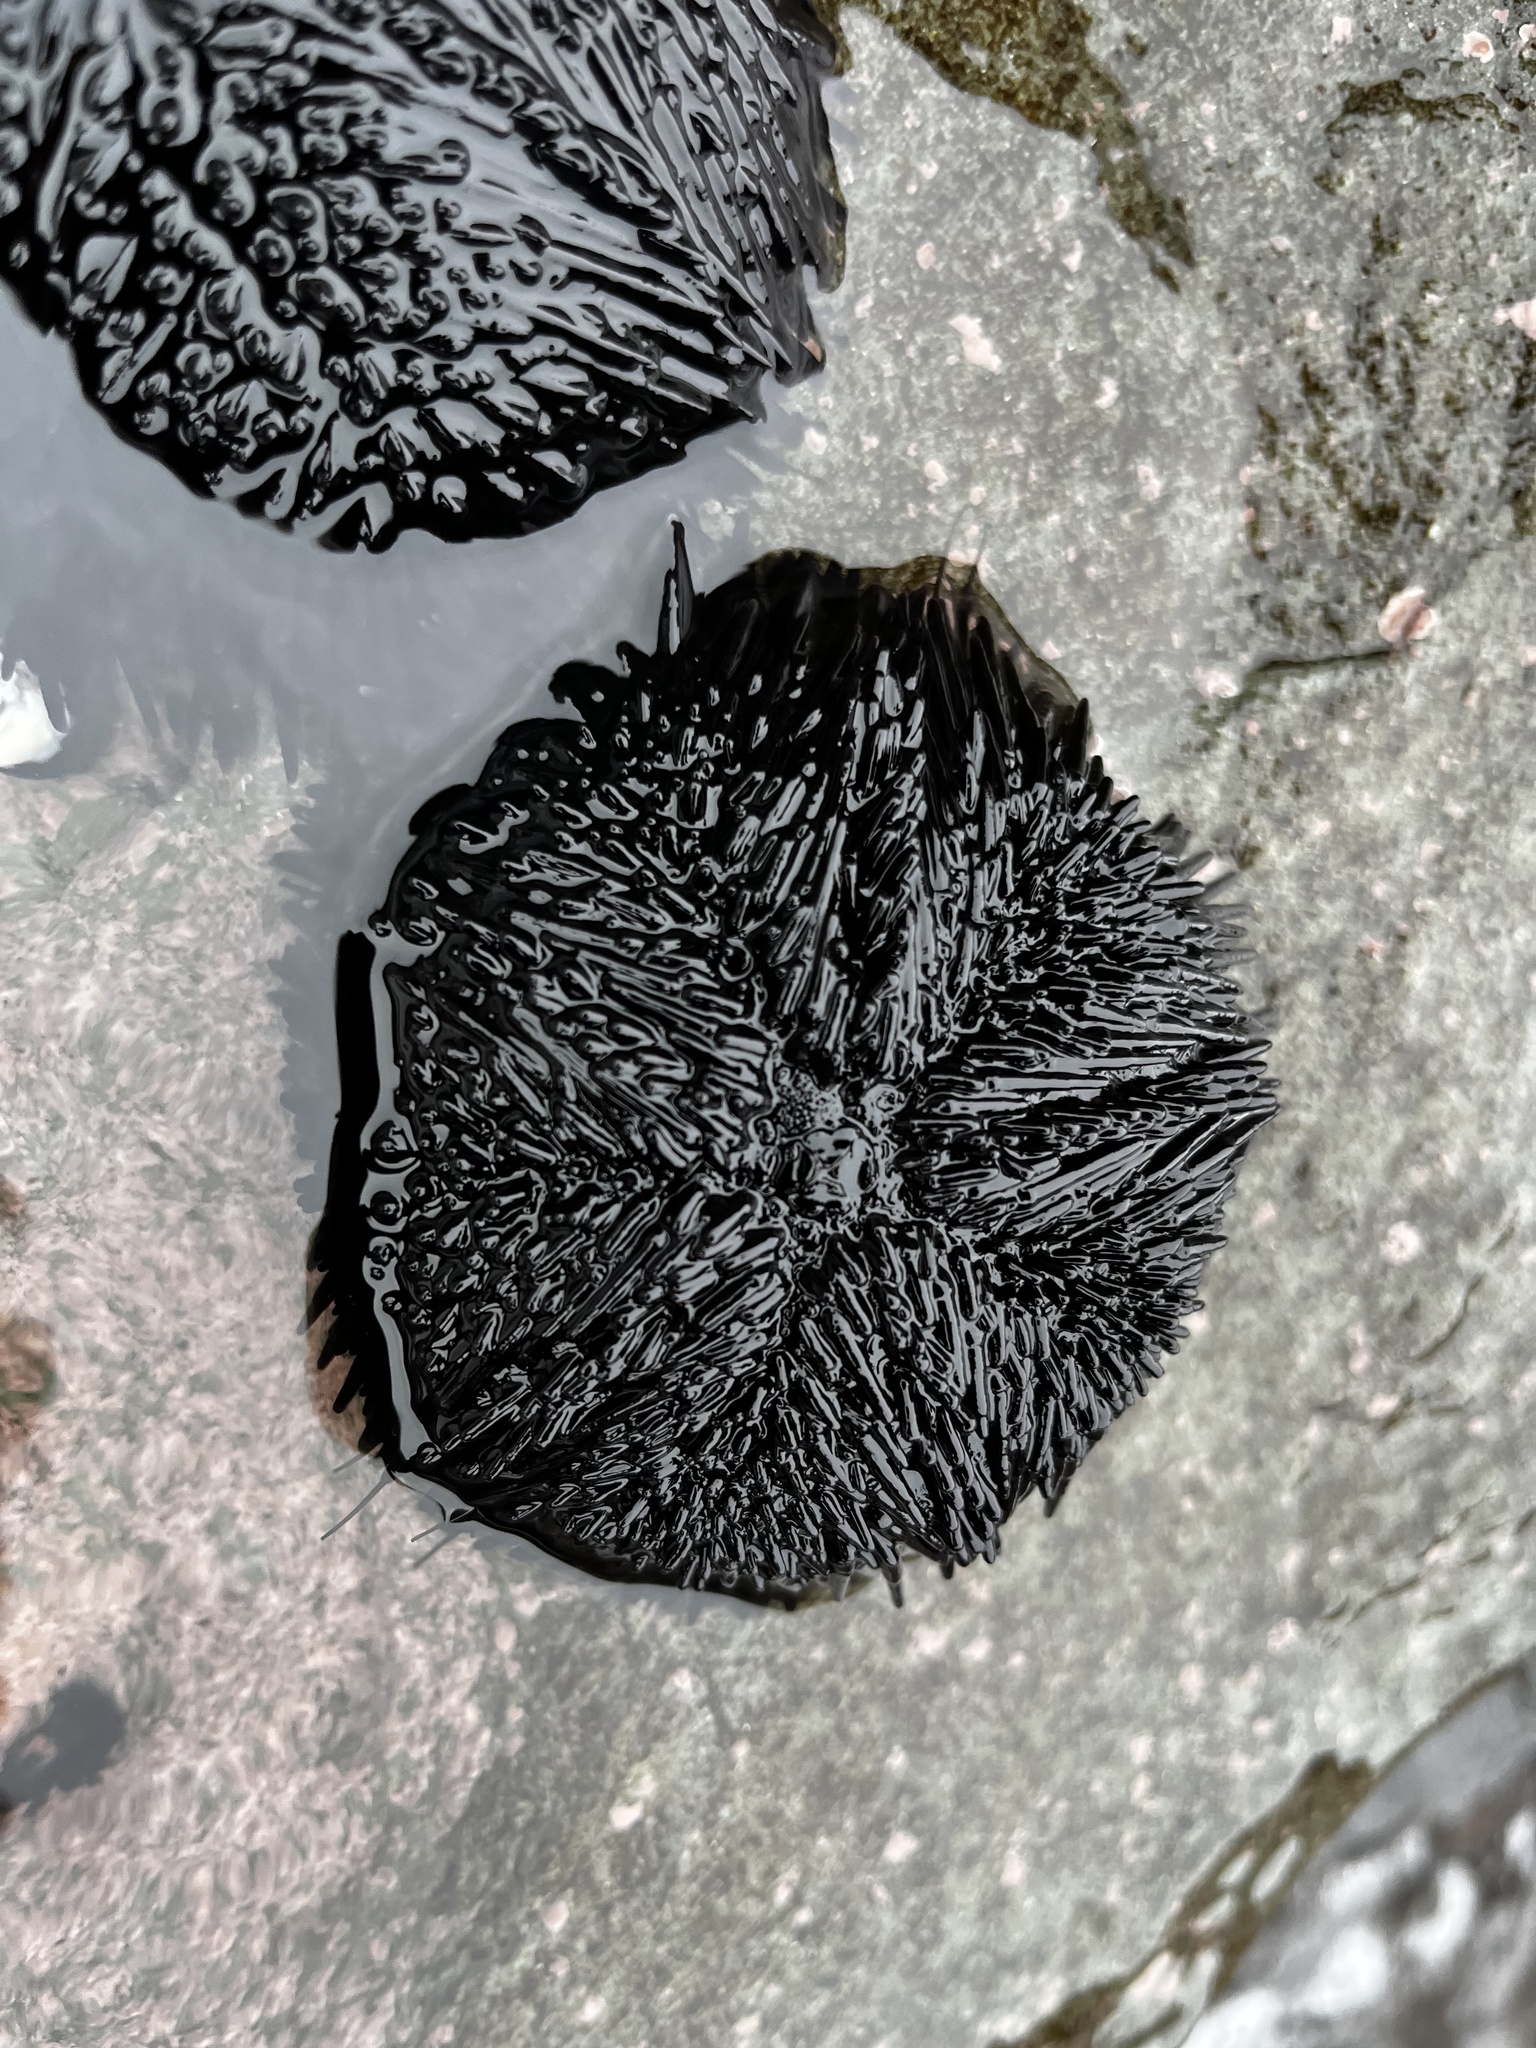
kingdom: Animalia
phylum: Echinodermata
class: Echinoidea
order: Arbacioida
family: Arbaciidae
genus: Tetrapygus
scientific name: Tetrapygus niger
